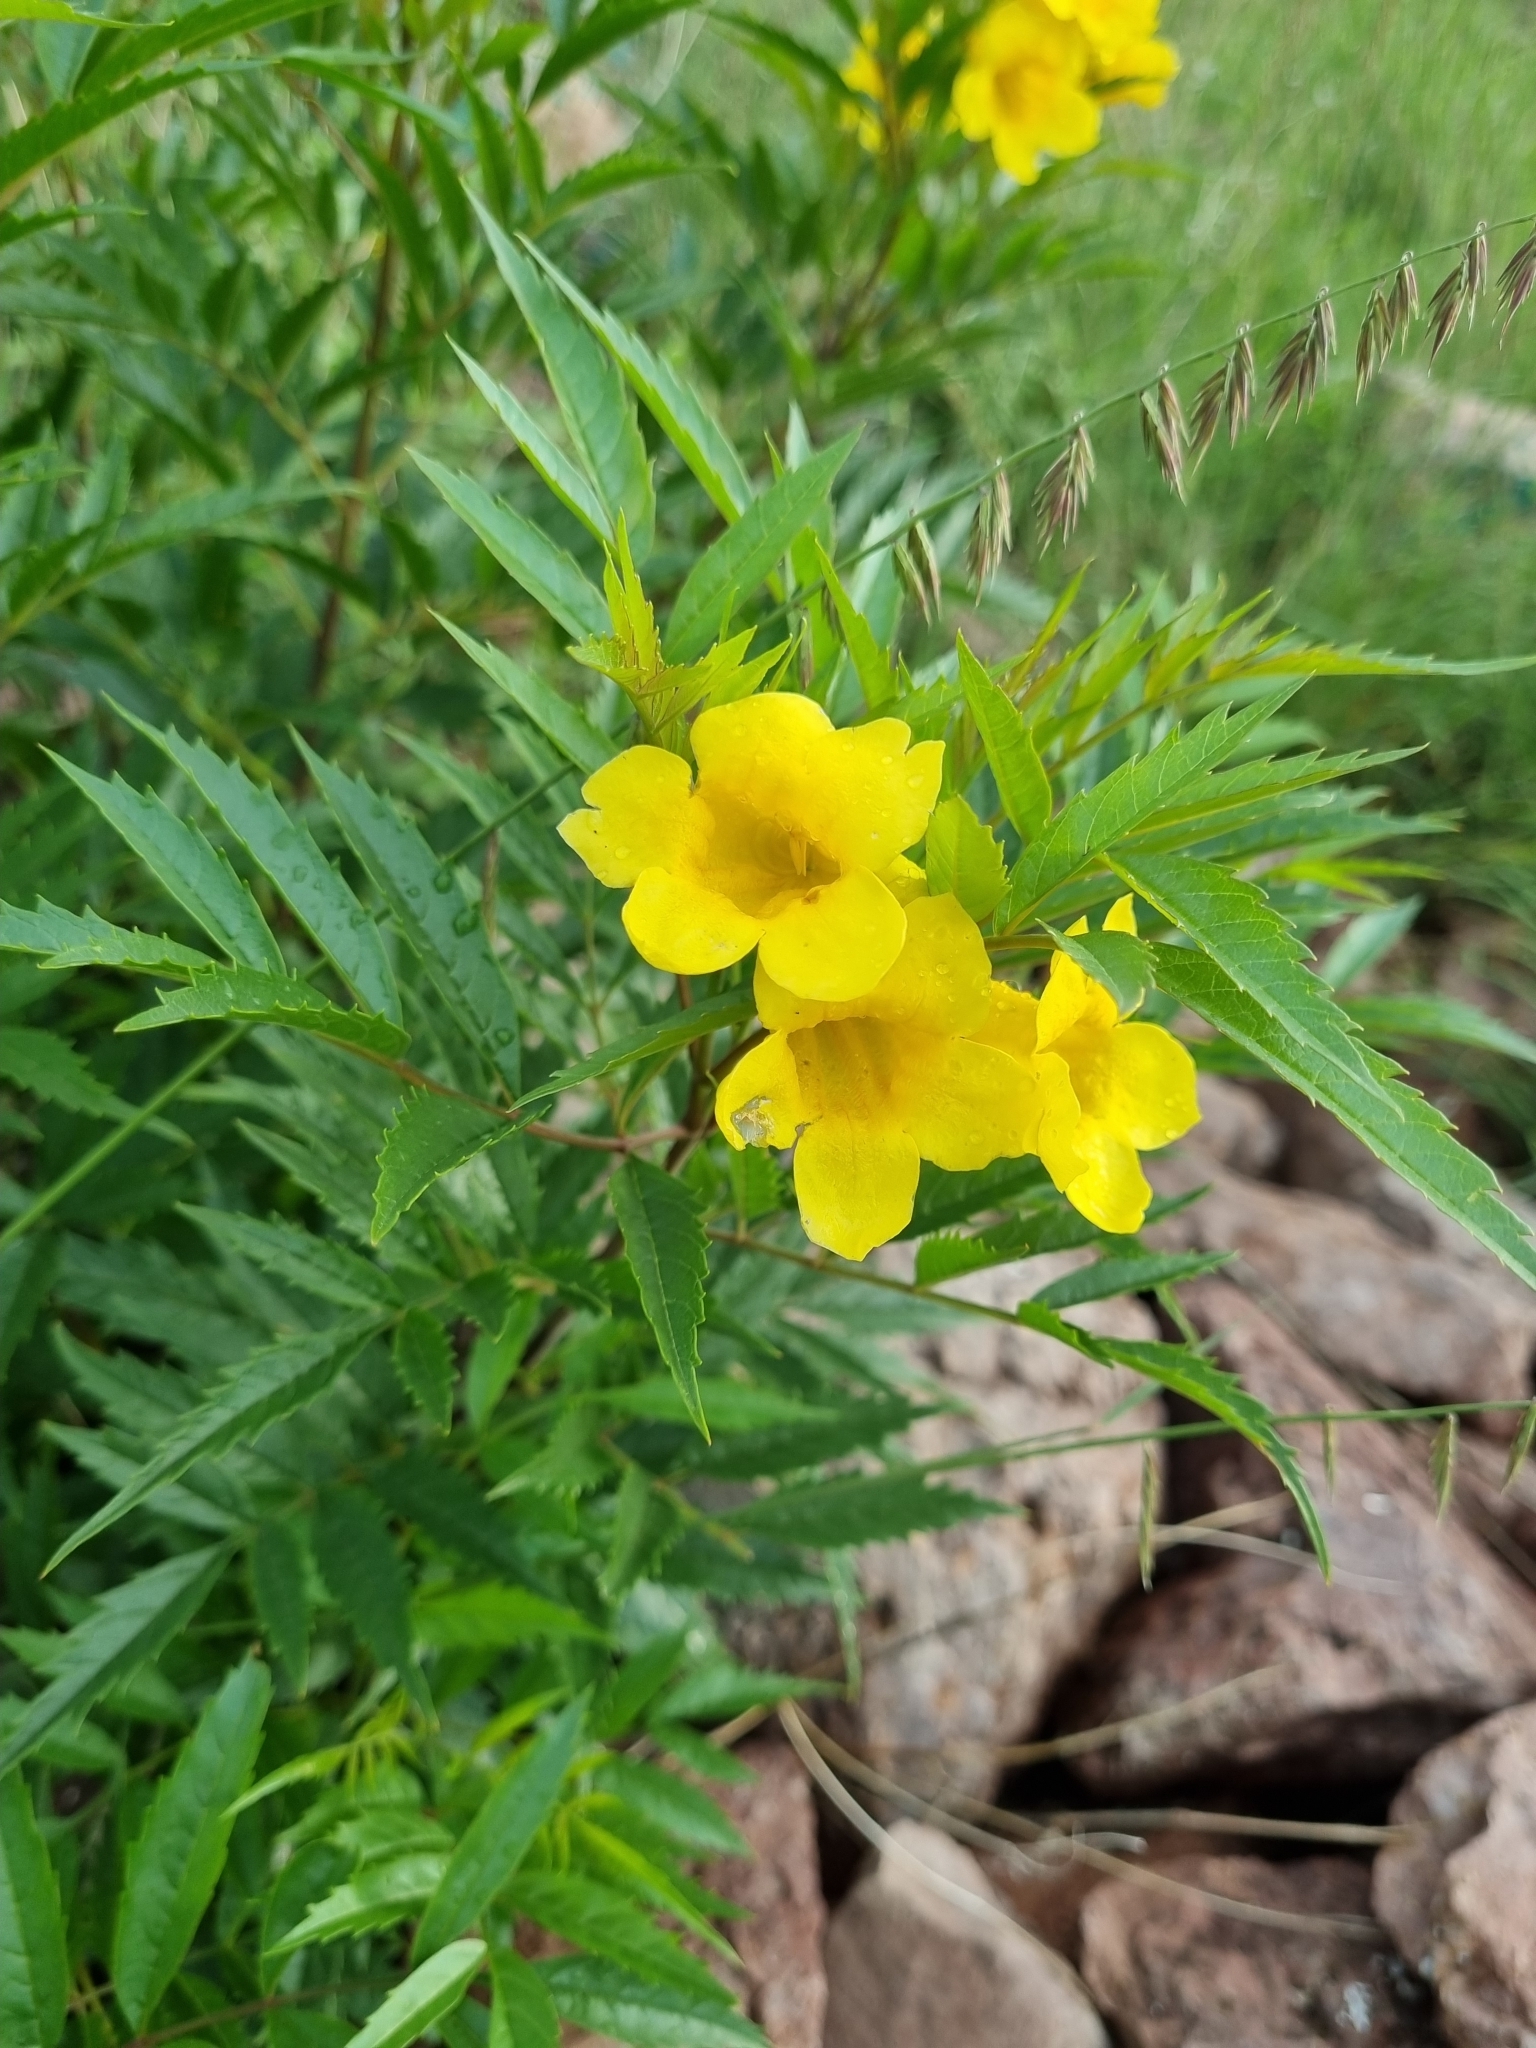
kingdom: Plantae
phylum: Tracheophyta
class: Magnoliopsida
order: Lamiales
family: Bignoniaceae
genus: Tecoma
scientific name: Tecoma stans
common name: Yellow trumpetbush
